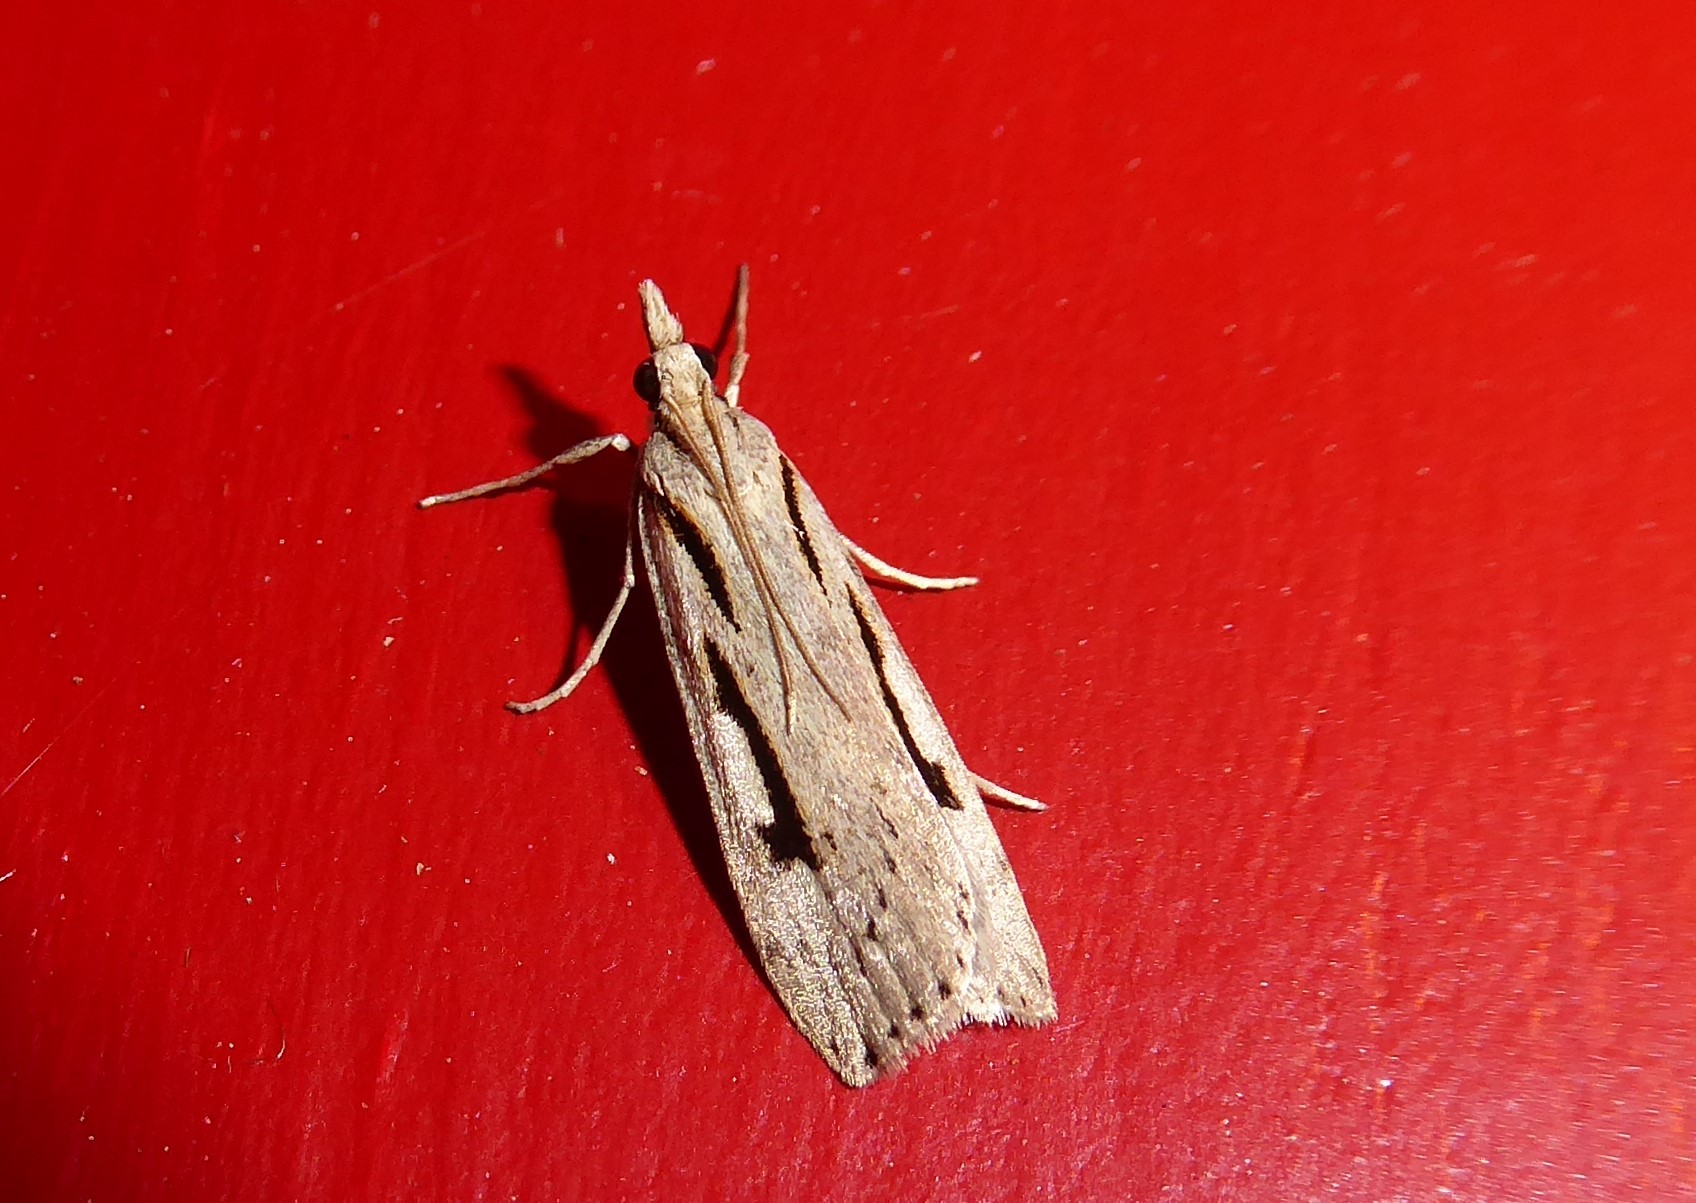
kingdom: Animalia
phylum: Arthropoda
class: Insecta
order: Lepidoptera
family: Crambidae
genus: Scoparia
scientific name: Scoparia rotuellus
